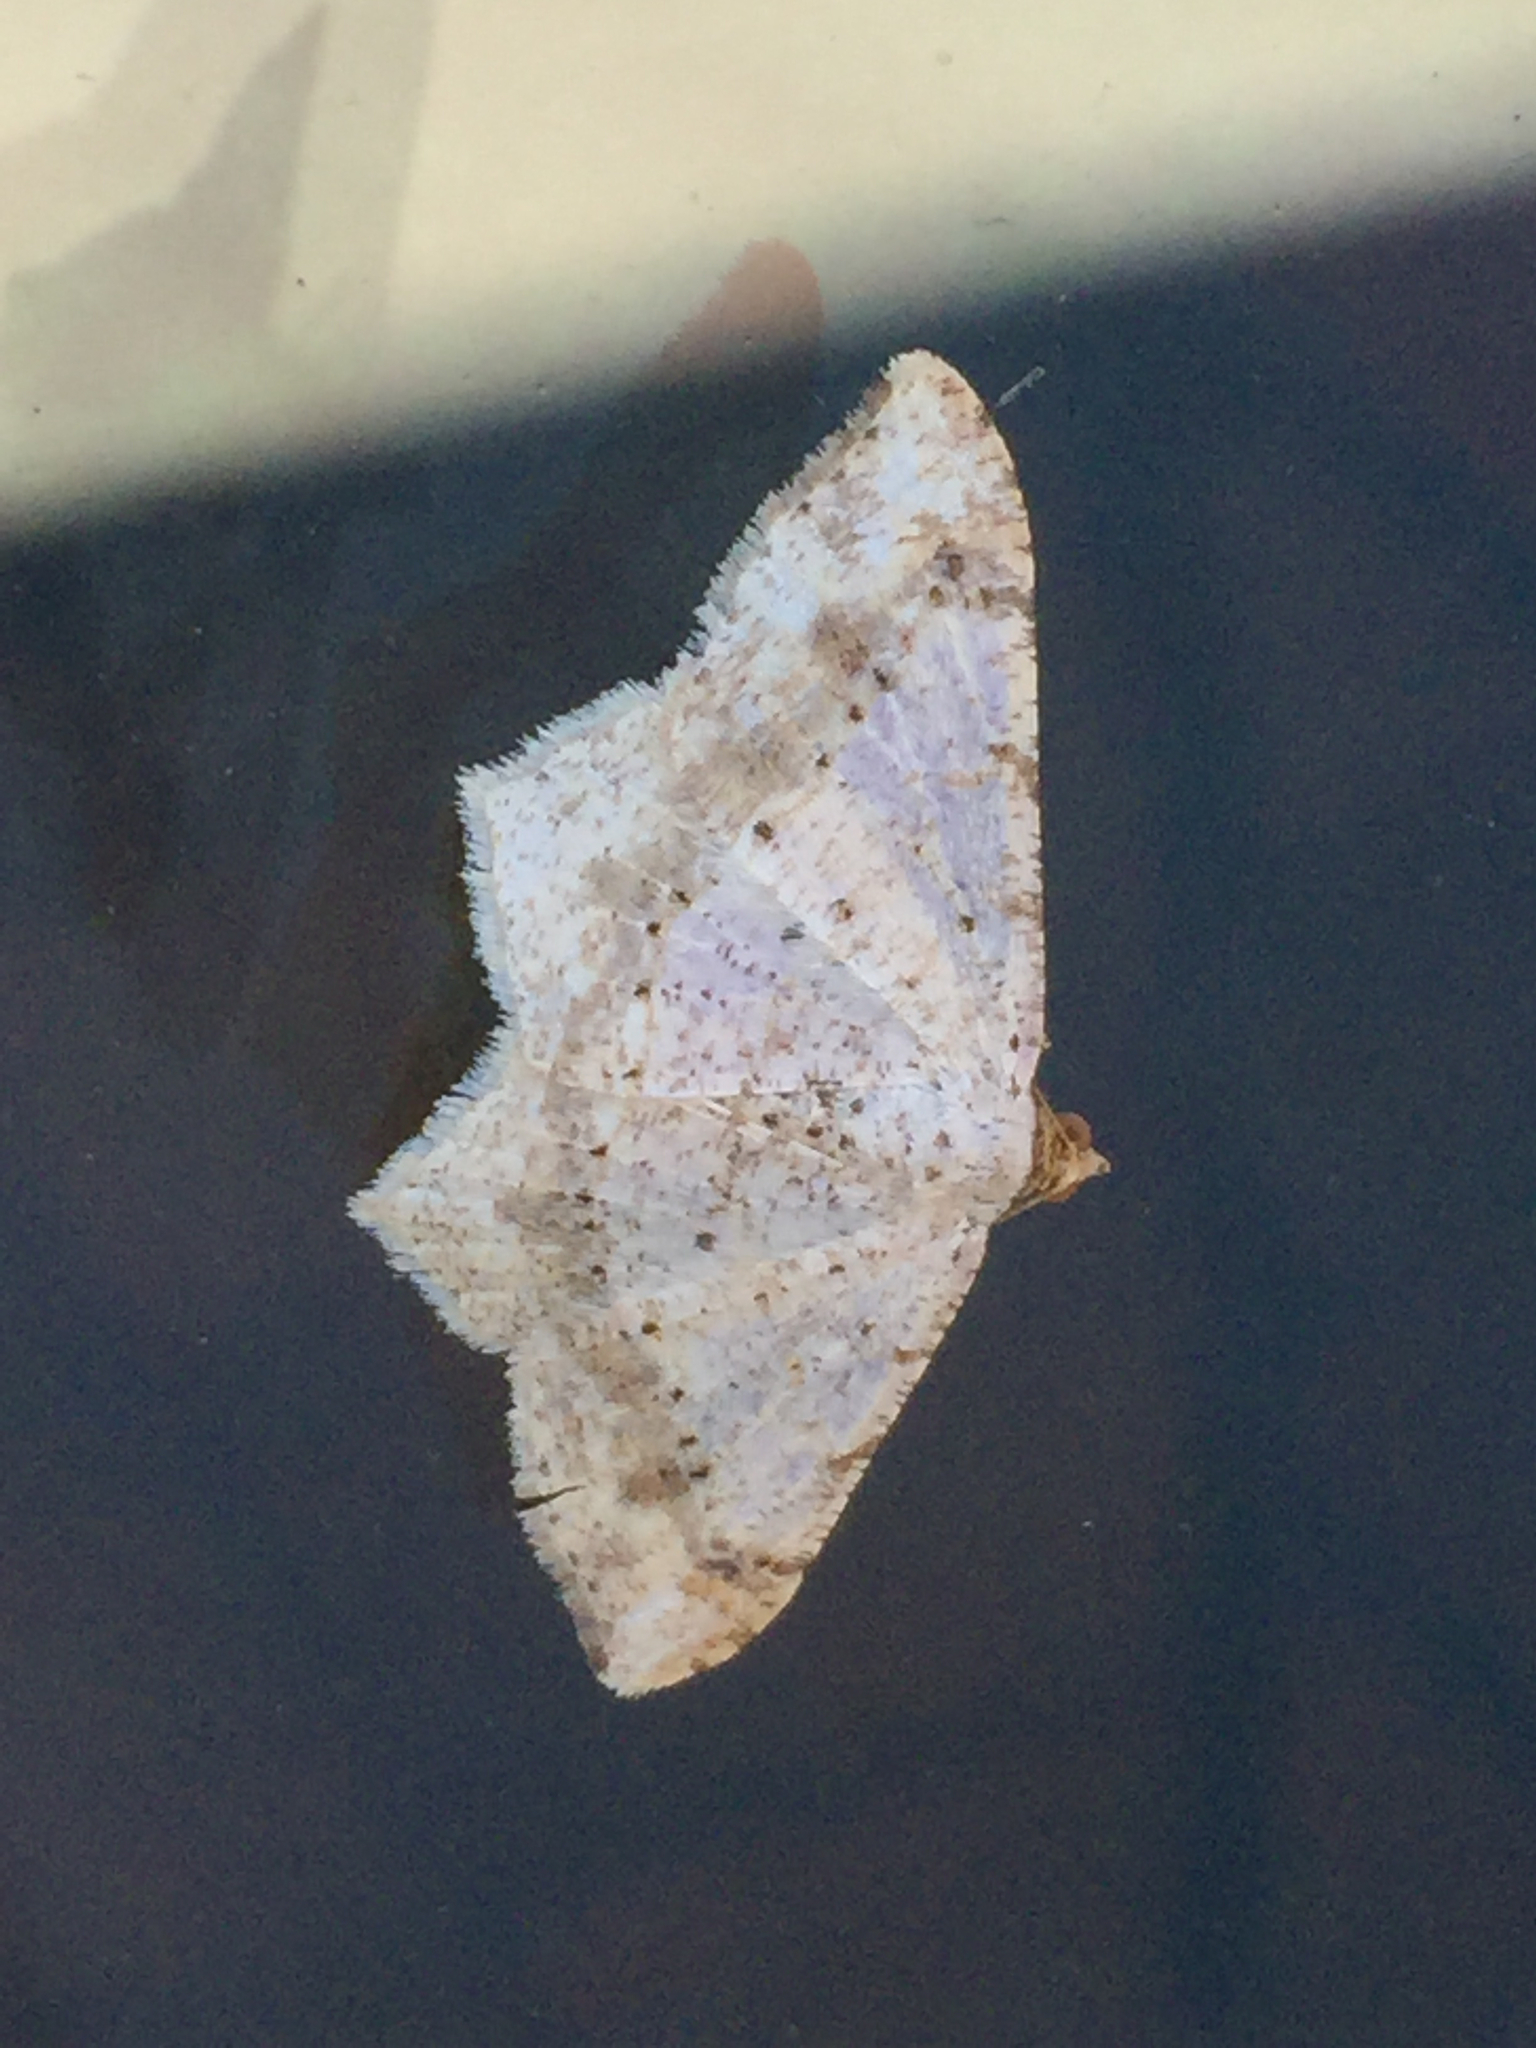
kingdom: Animalia
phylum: Arthropoda
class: Insecta
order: Lepidoptera
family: Geometridae
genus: Macaria
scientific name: Macaria abydata
